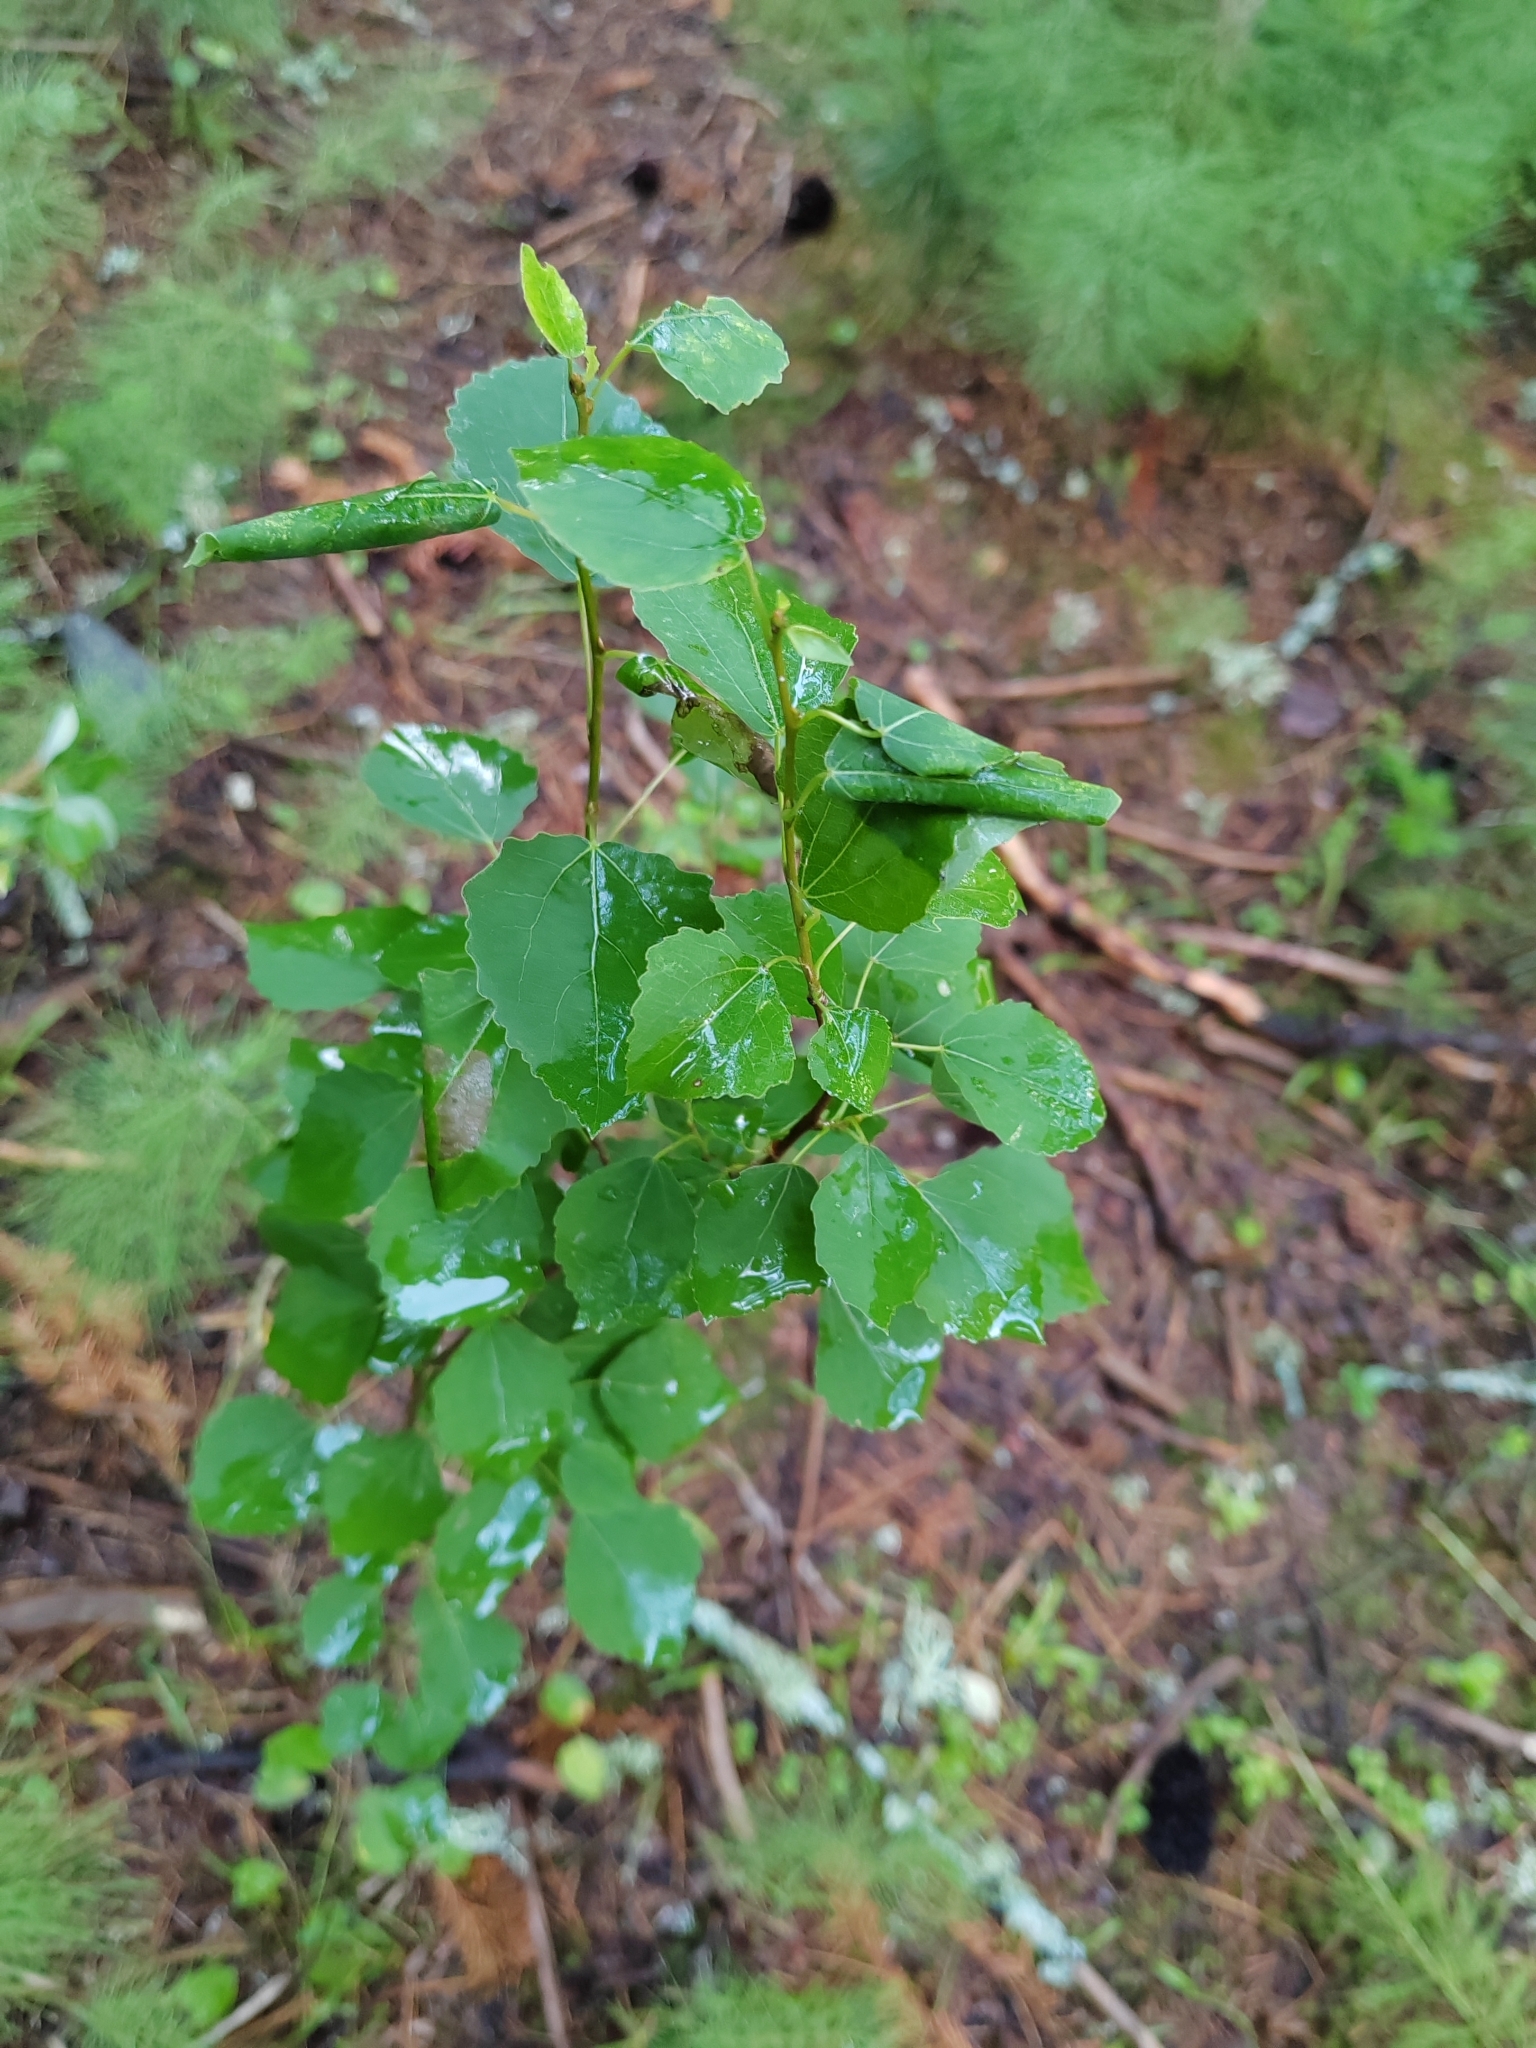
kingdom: Plantae
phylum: Tracheophyta
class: Magnoliopsida
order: Malpighiales
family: Salicaceae
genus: Populus
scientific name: Populus tremula
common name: European aspen
